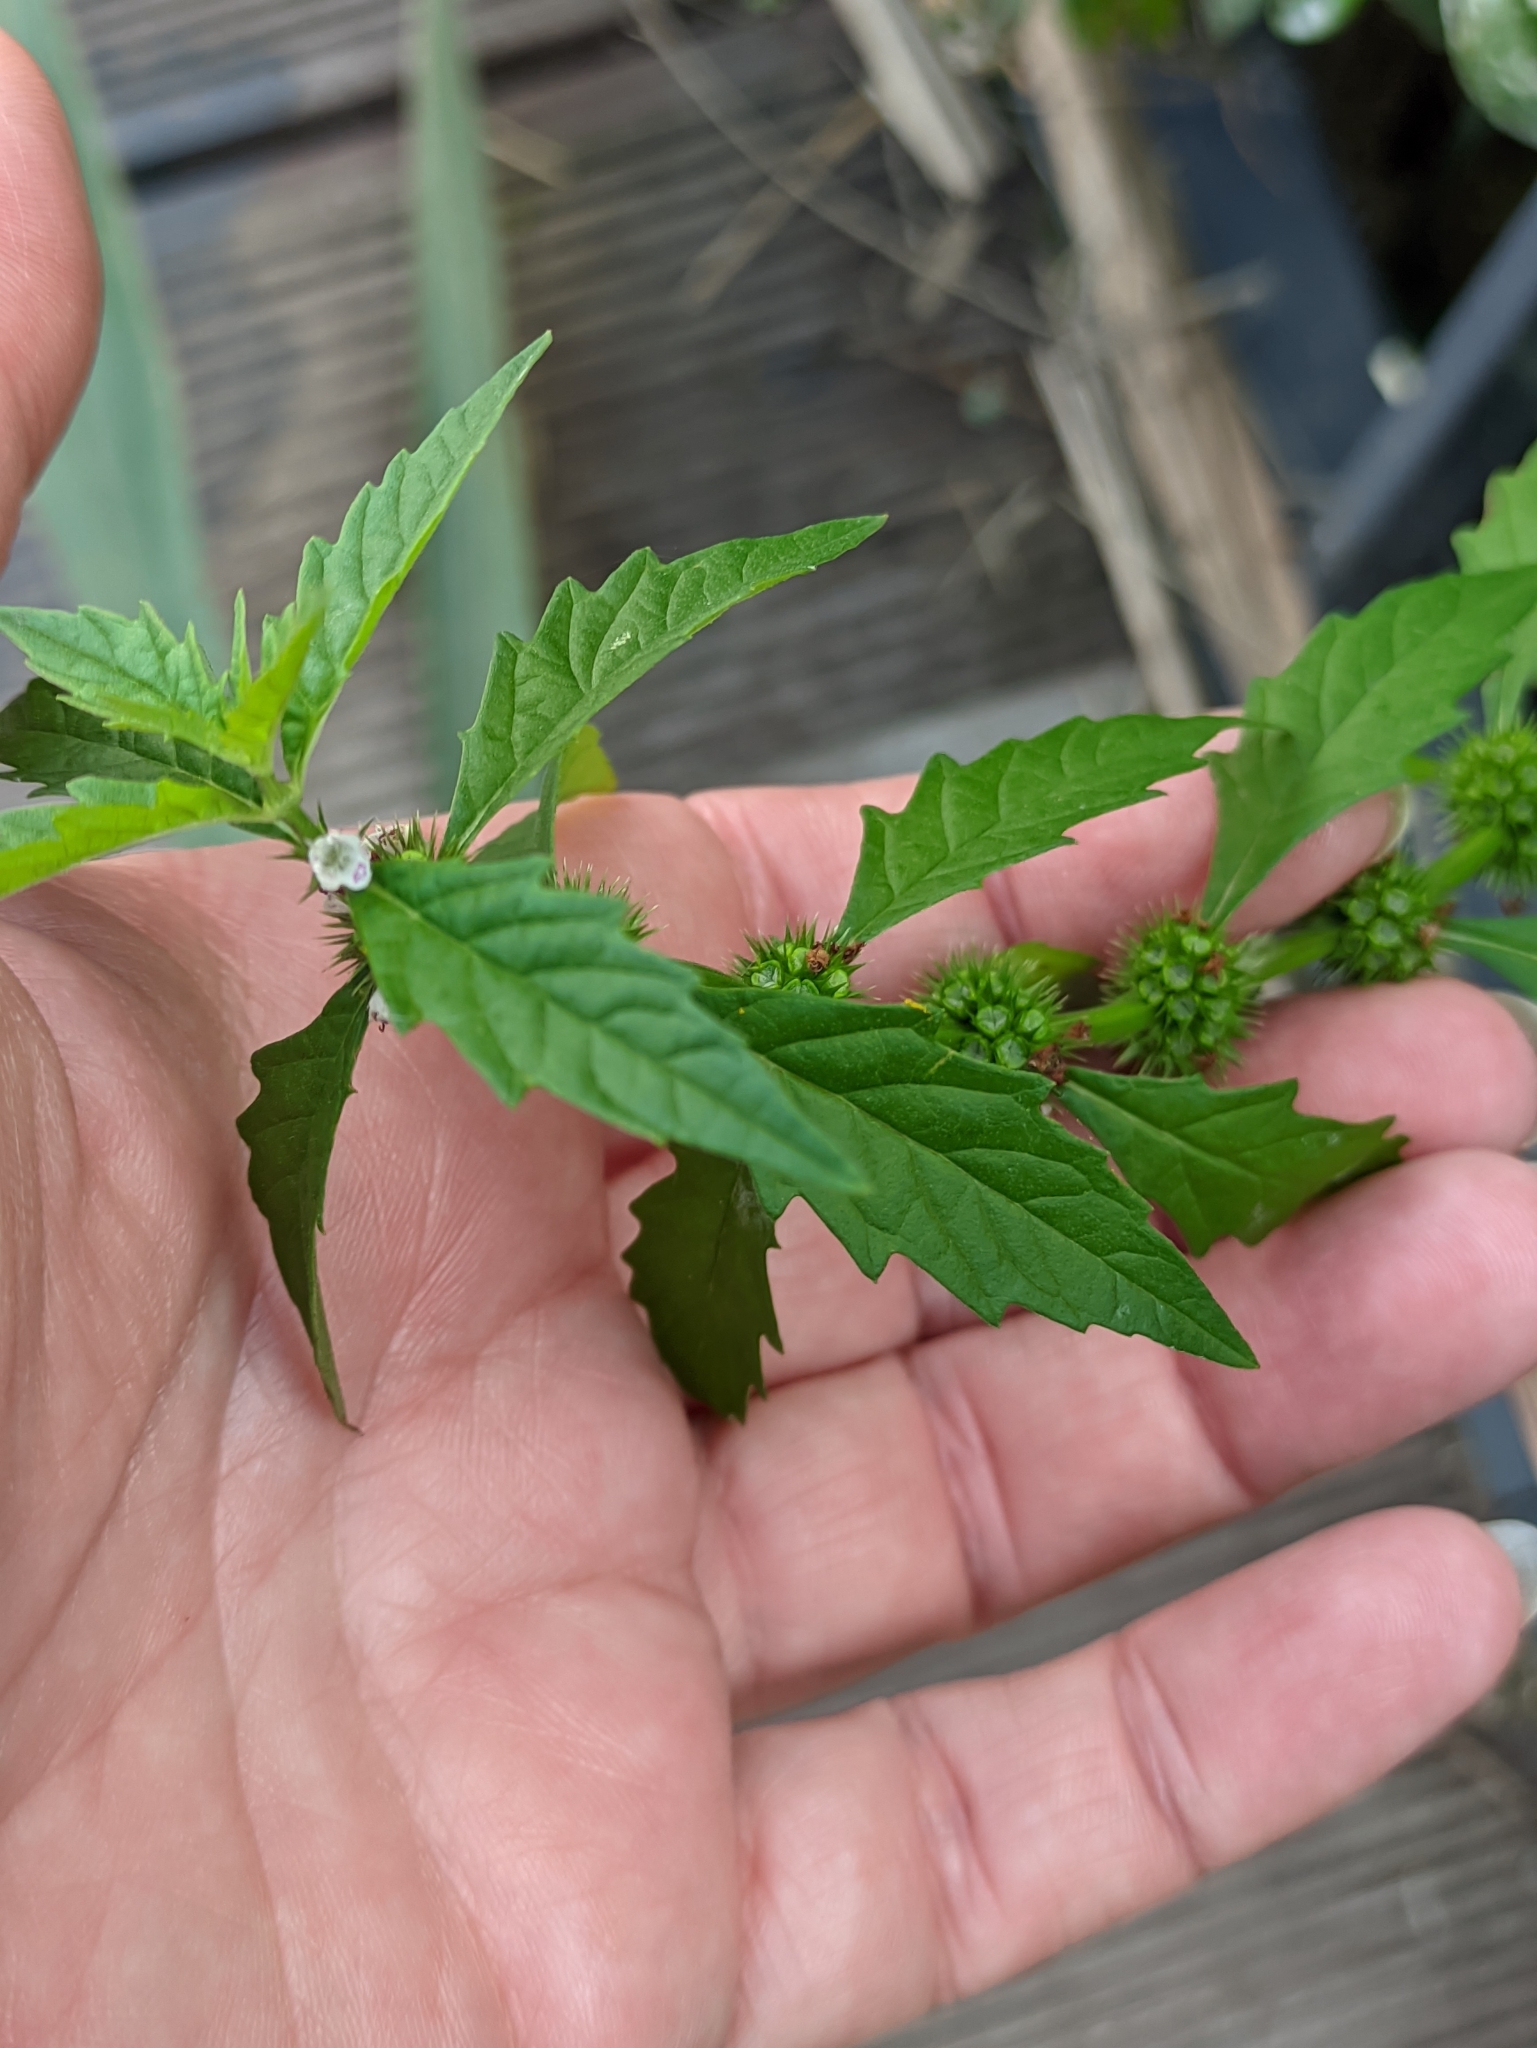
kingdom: Plantae
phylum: Tracheophyta
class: Magnoliopsida
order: Lamiales
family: Lamiaceae
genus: Lycopus
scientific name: Lycopus europaeus
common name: European bugleweed
